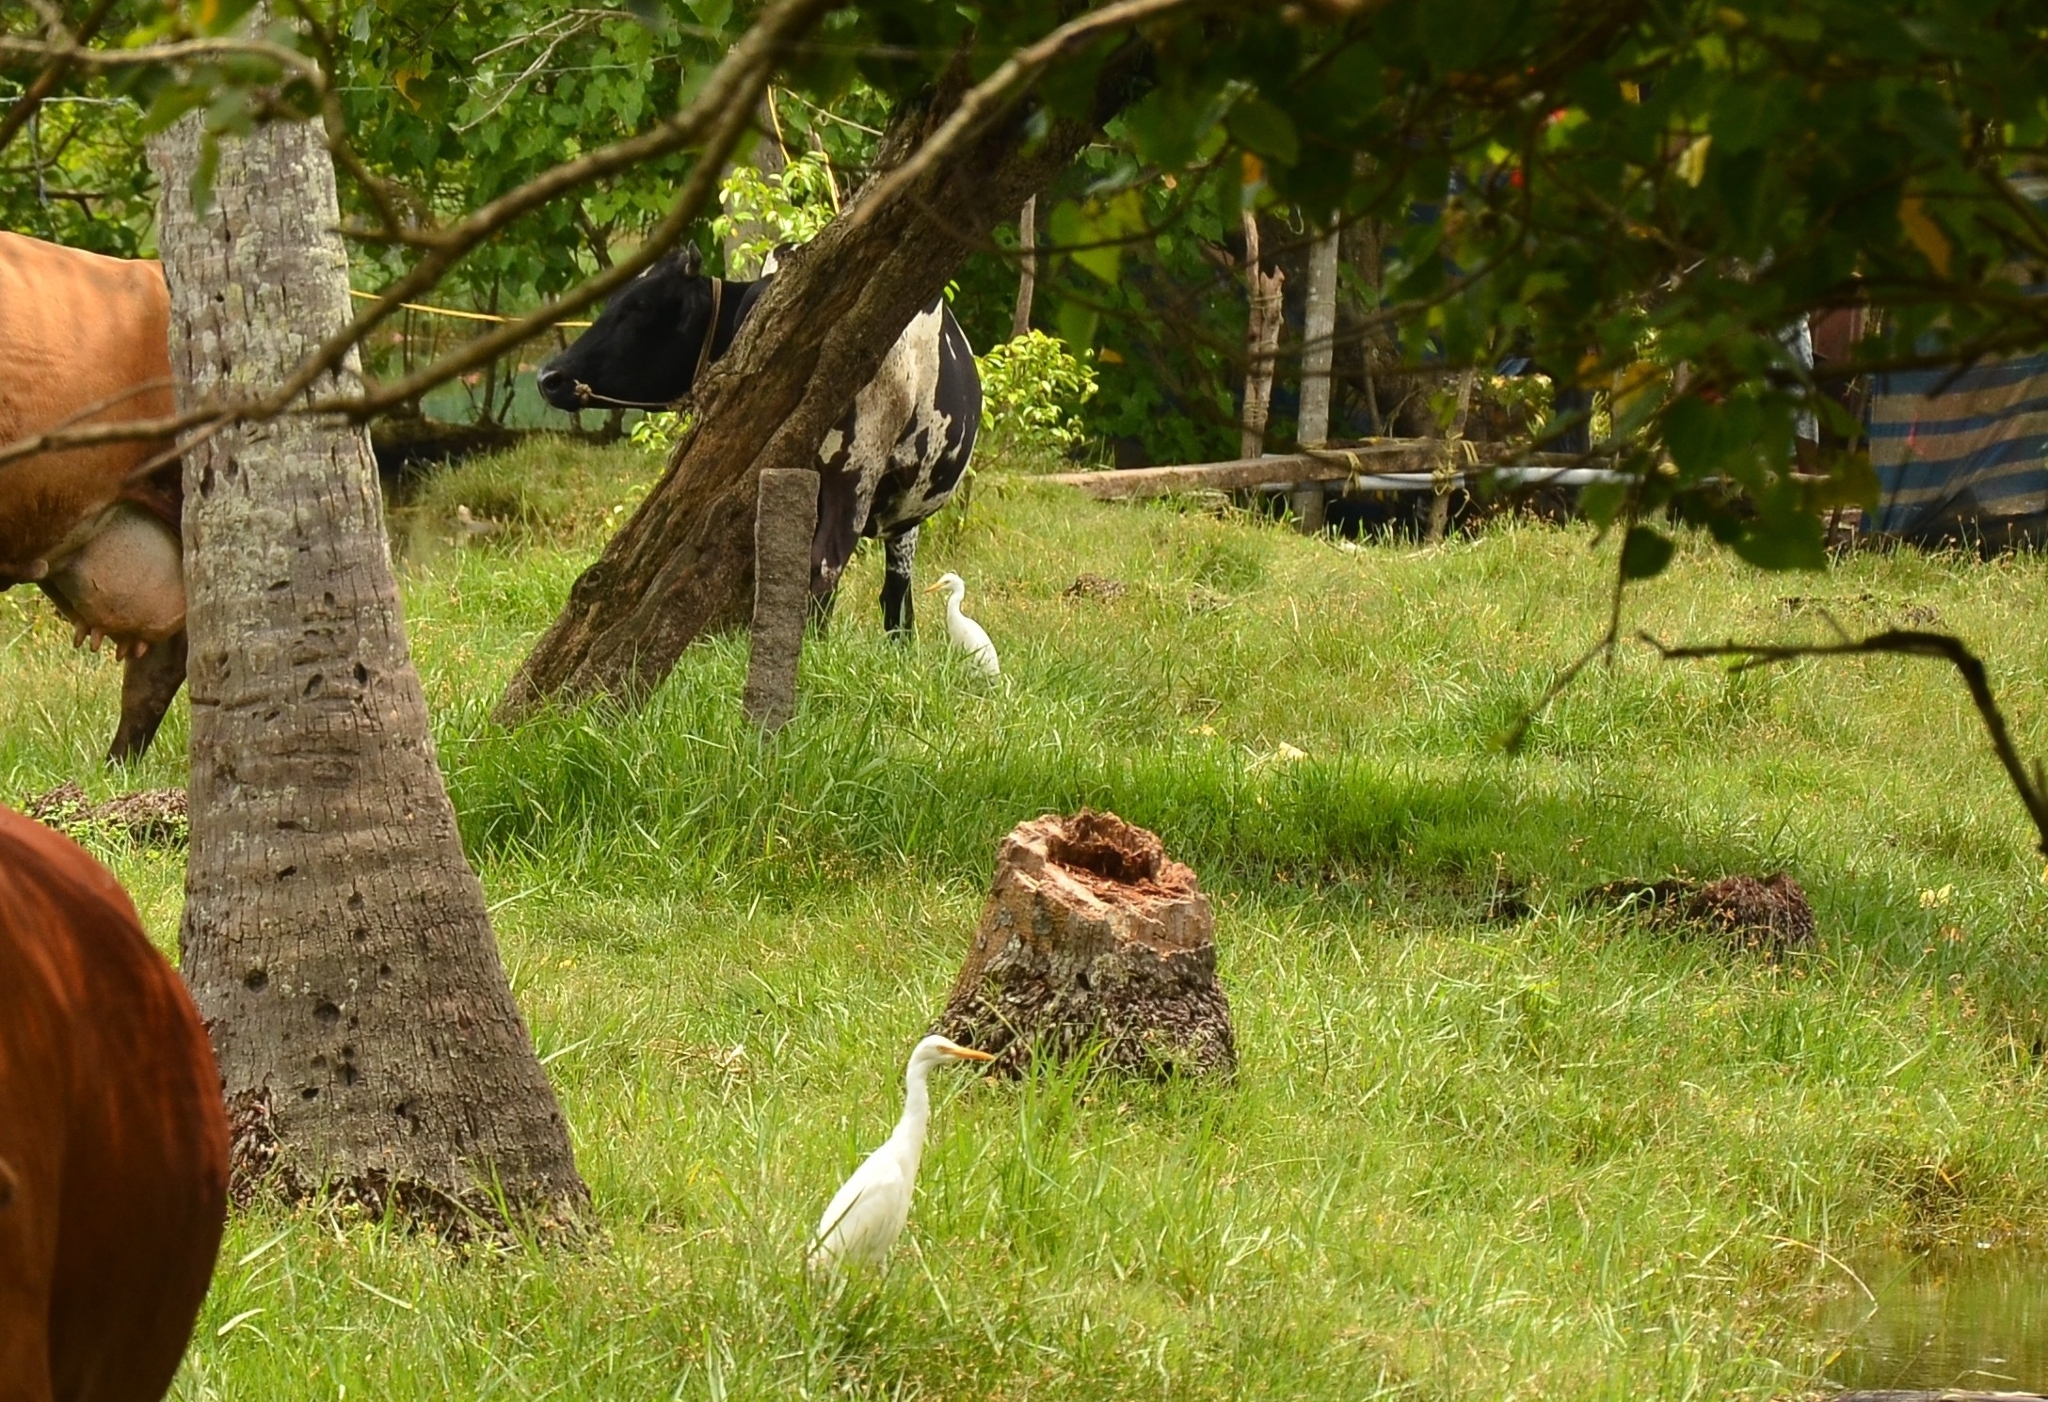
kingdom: Animalia
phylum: Chordata
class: Aves
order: Pelecaniformes
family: Ardeidae
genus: Bubulcus
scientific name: Bubulcus coromandus
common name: Eastern cattle egret
